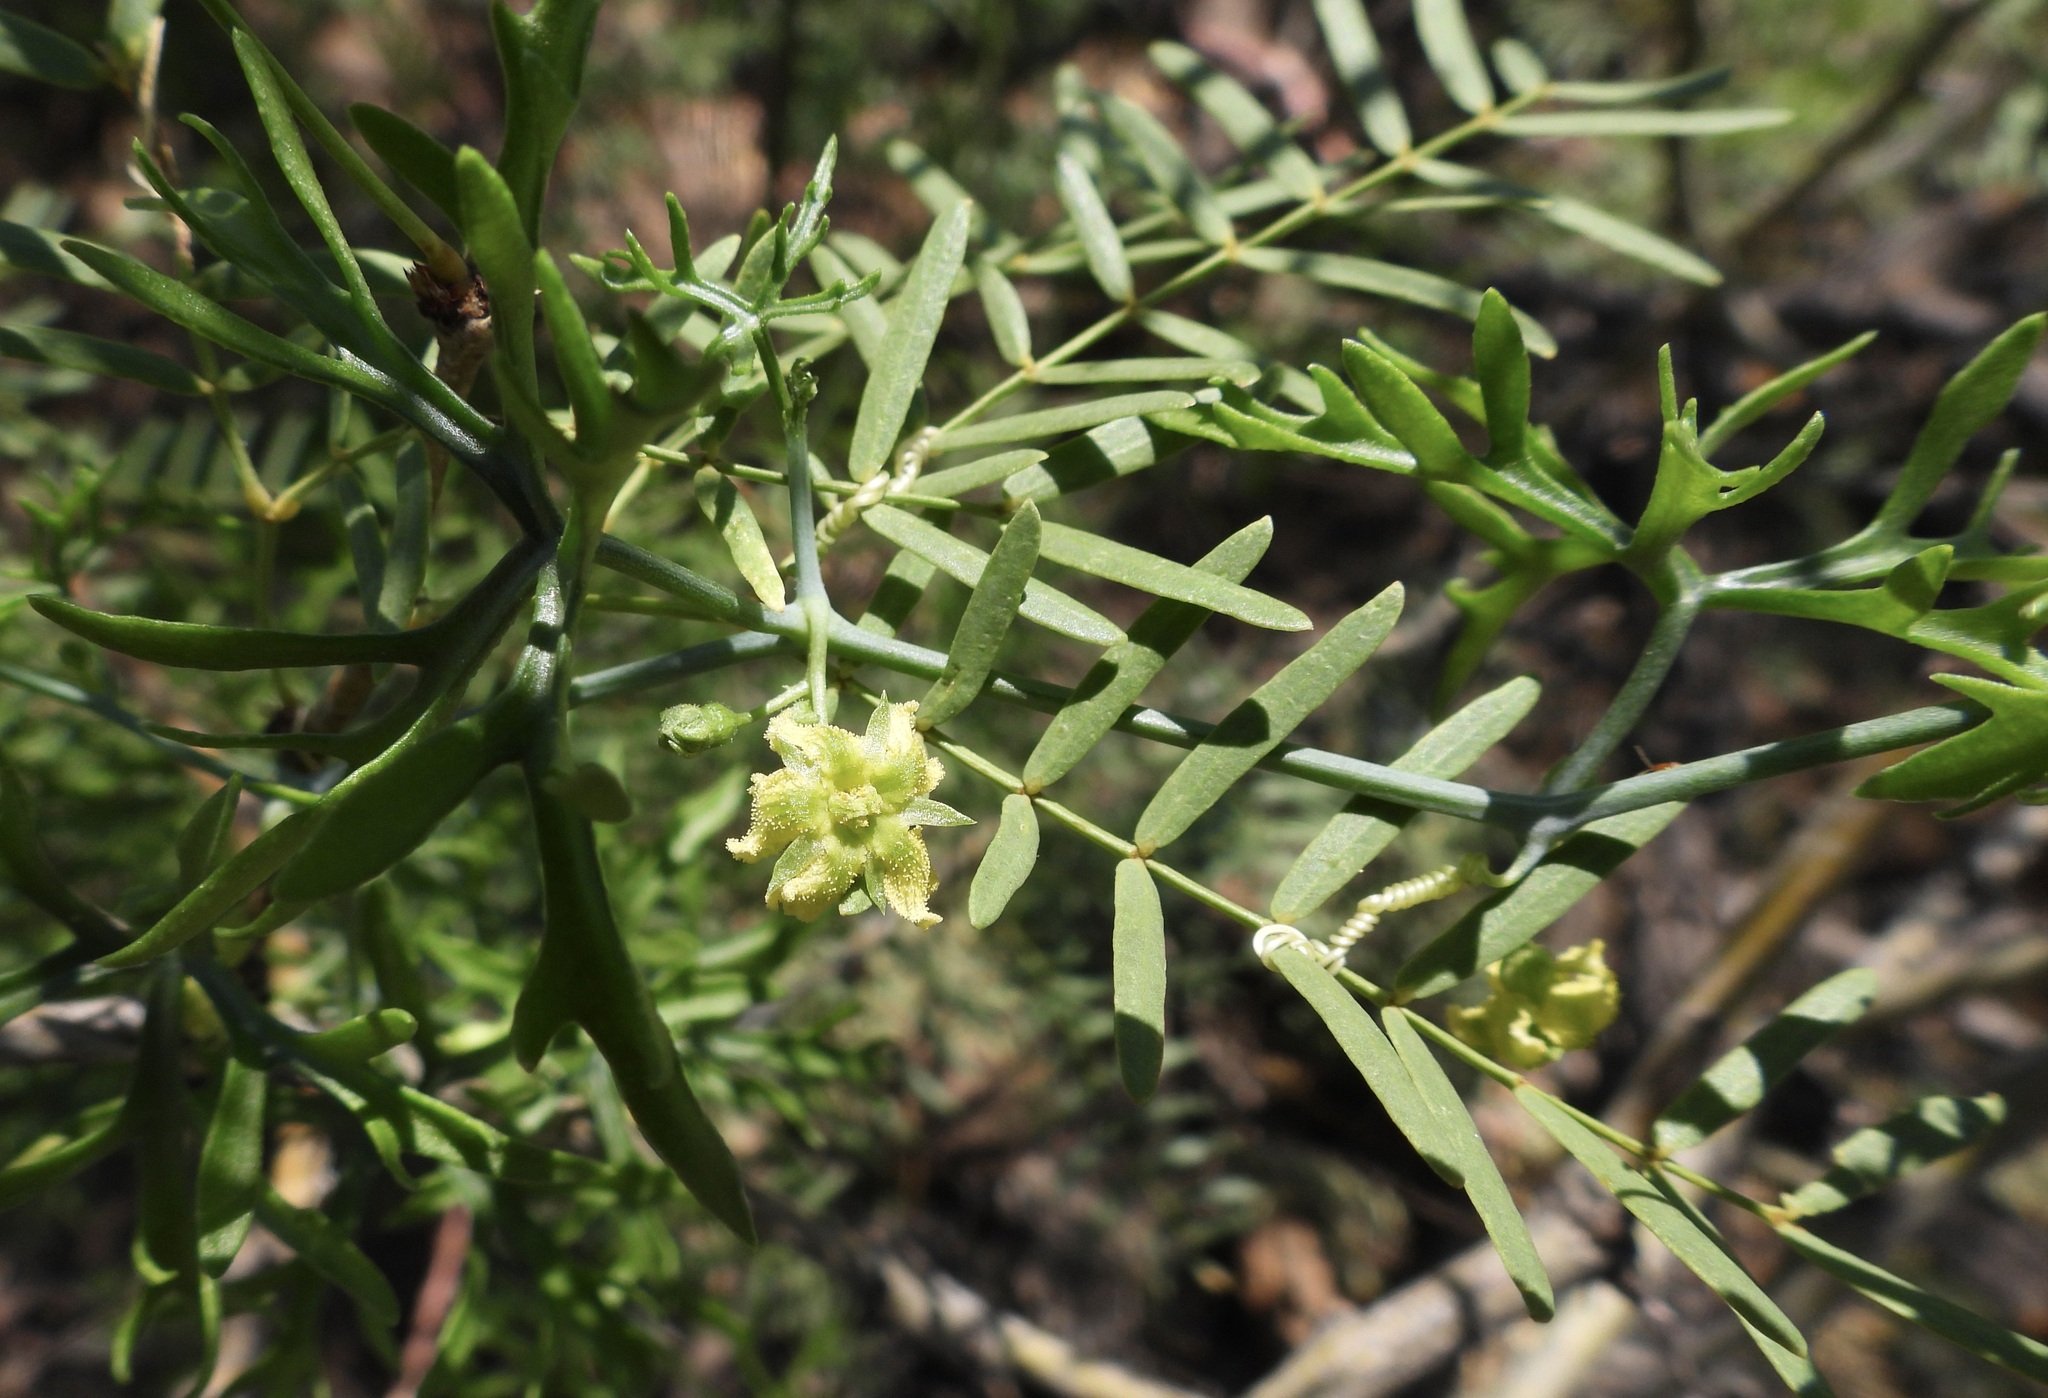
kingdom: Plantae
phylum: Tracheophyta
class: Magnoliopsida
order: Cucurbitales
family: Cucurbitaceae
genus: Ibervillea
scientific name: Ibervillea tenuisecta
